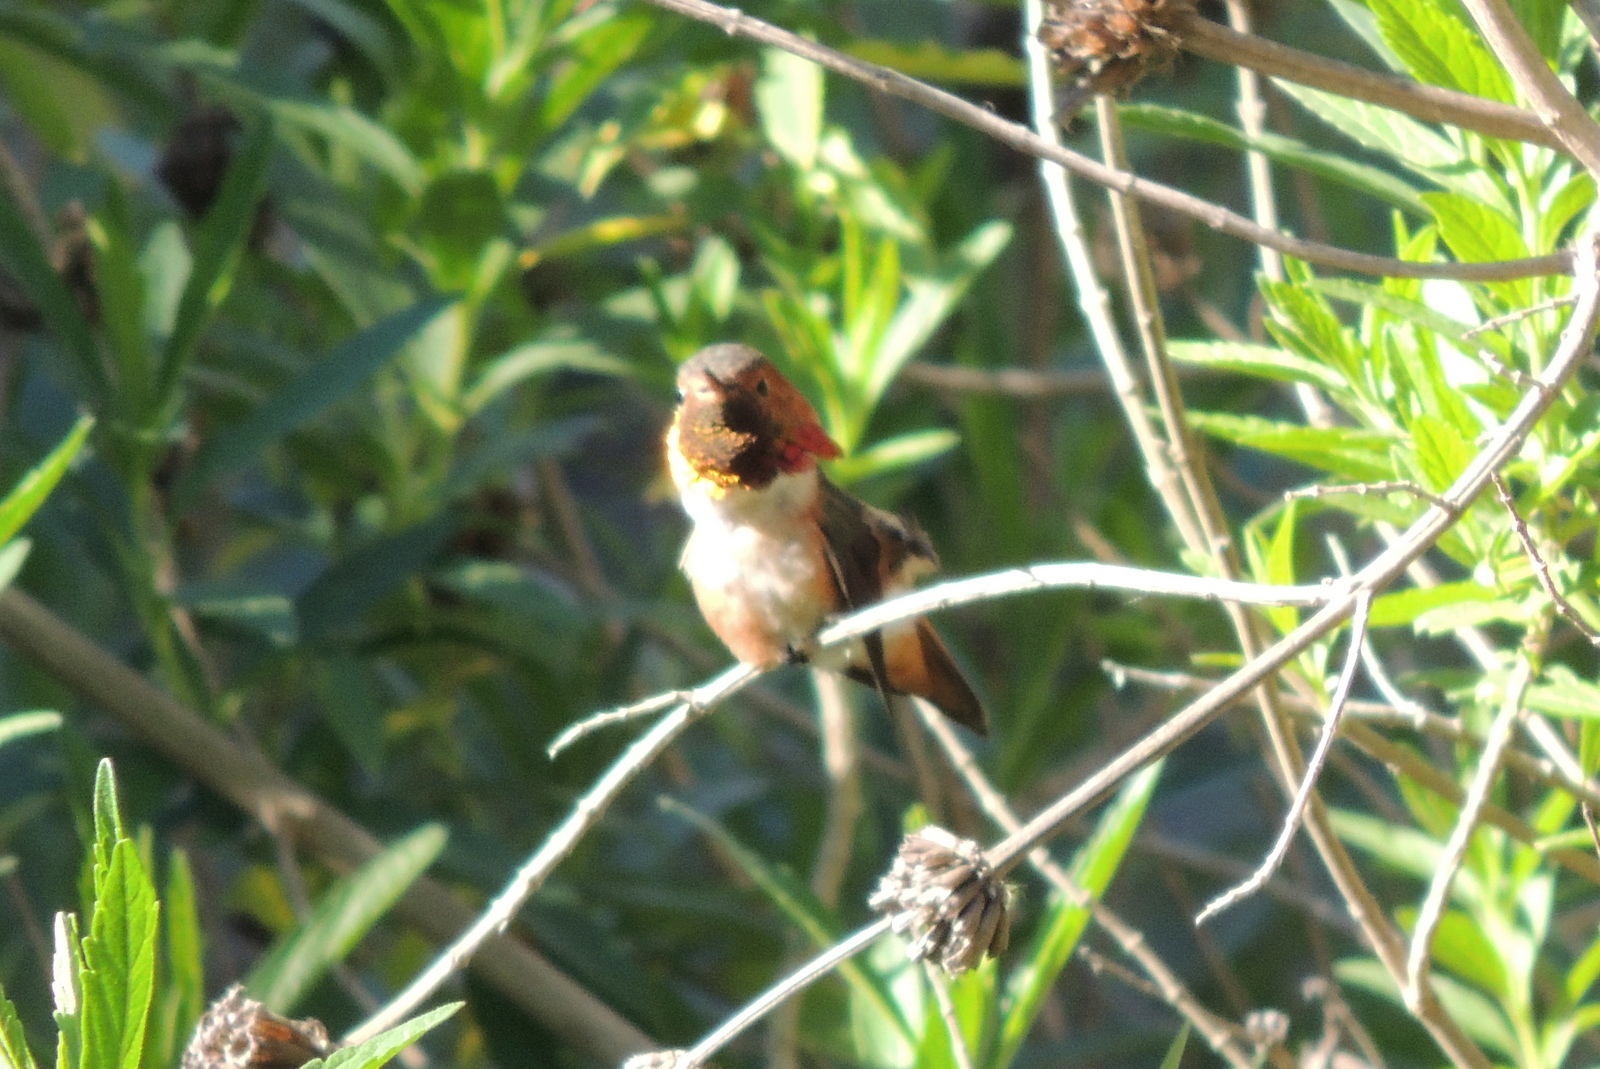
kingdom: Animalia
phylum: Chordata
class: Aves
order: Apodiformes
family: Trochilidae
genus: Selasphorus
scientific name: Selasphorus sasin
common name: Allen's hummingbird
